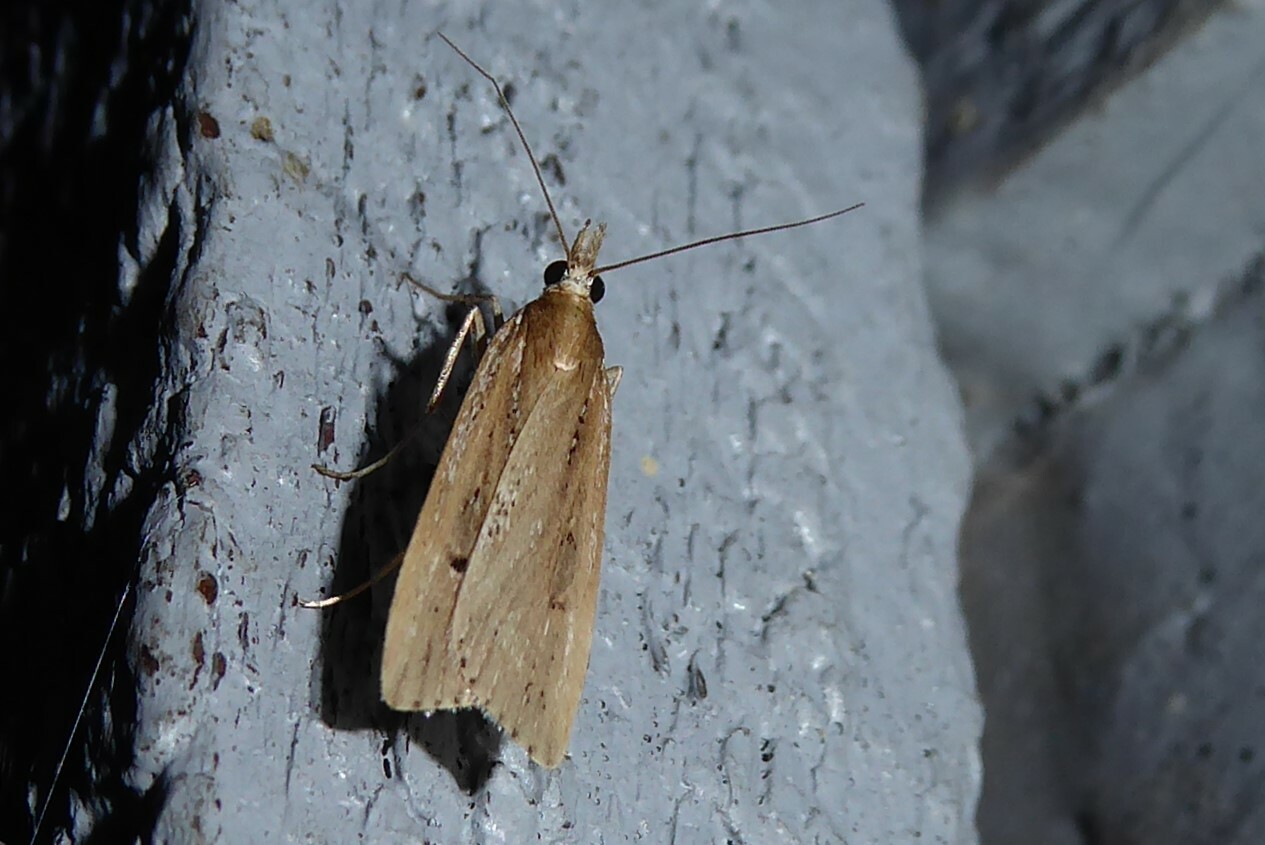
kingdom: Animalia
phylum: Arthropoda
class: Insecta
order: Lepidoptera
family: Crambidae
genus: Eudonia
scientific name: Eudonia sabulosella
